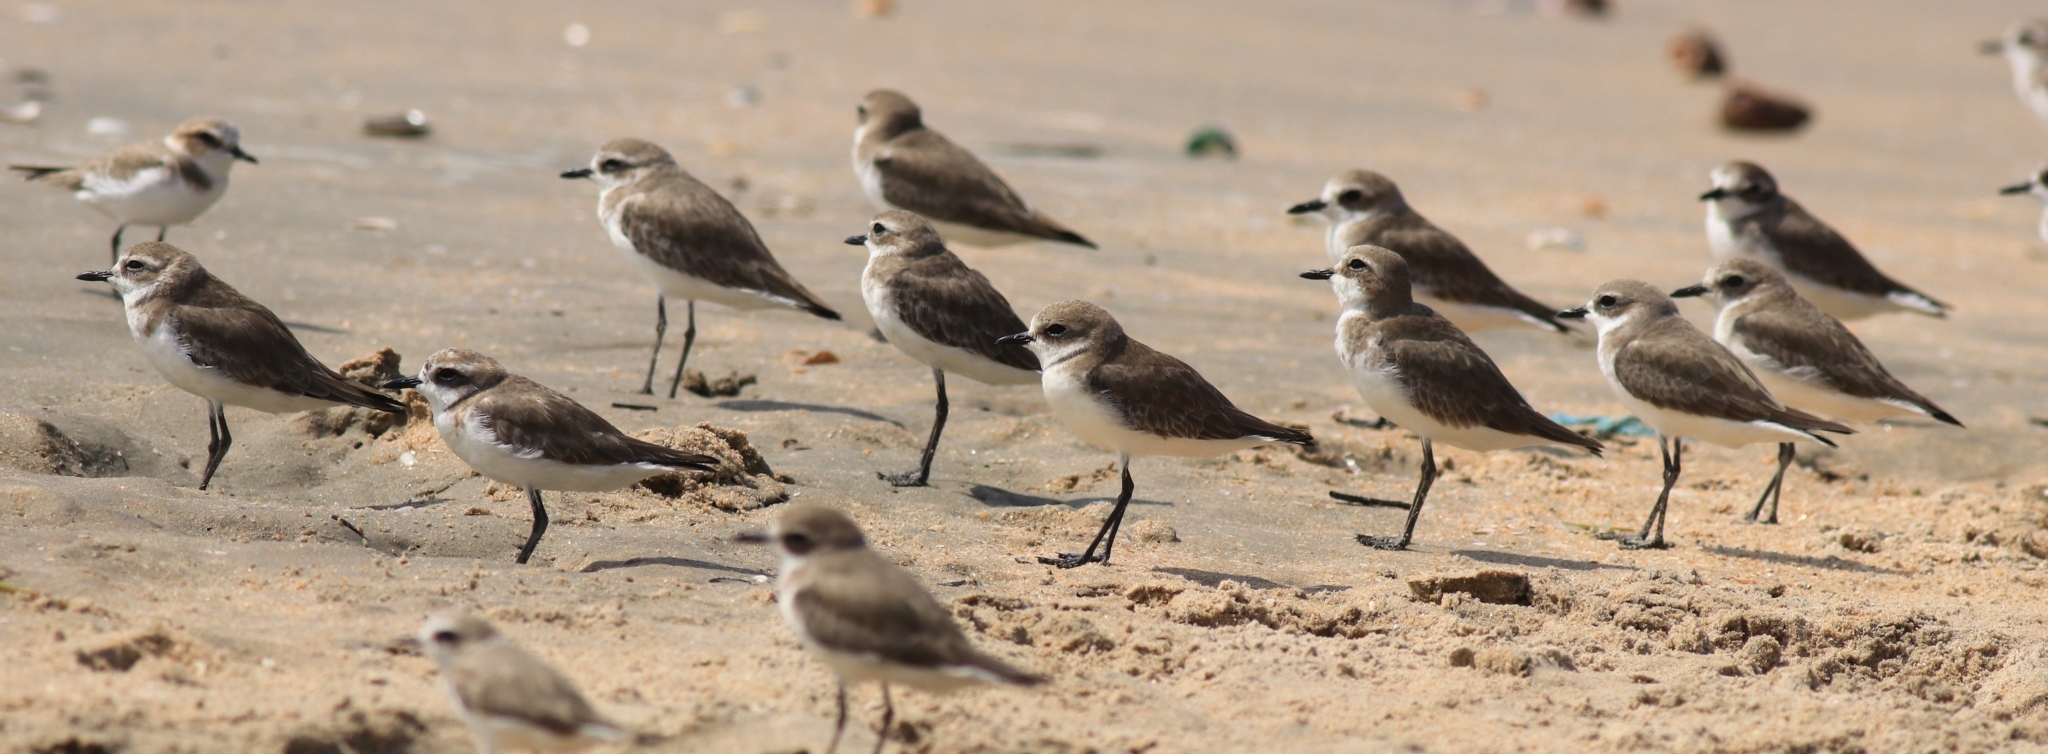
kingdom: Animalia
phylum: Chordata
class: Aves
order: Charadriiformes
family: Charadriidae
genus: Anarhynchus
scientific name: Anarhynchus
